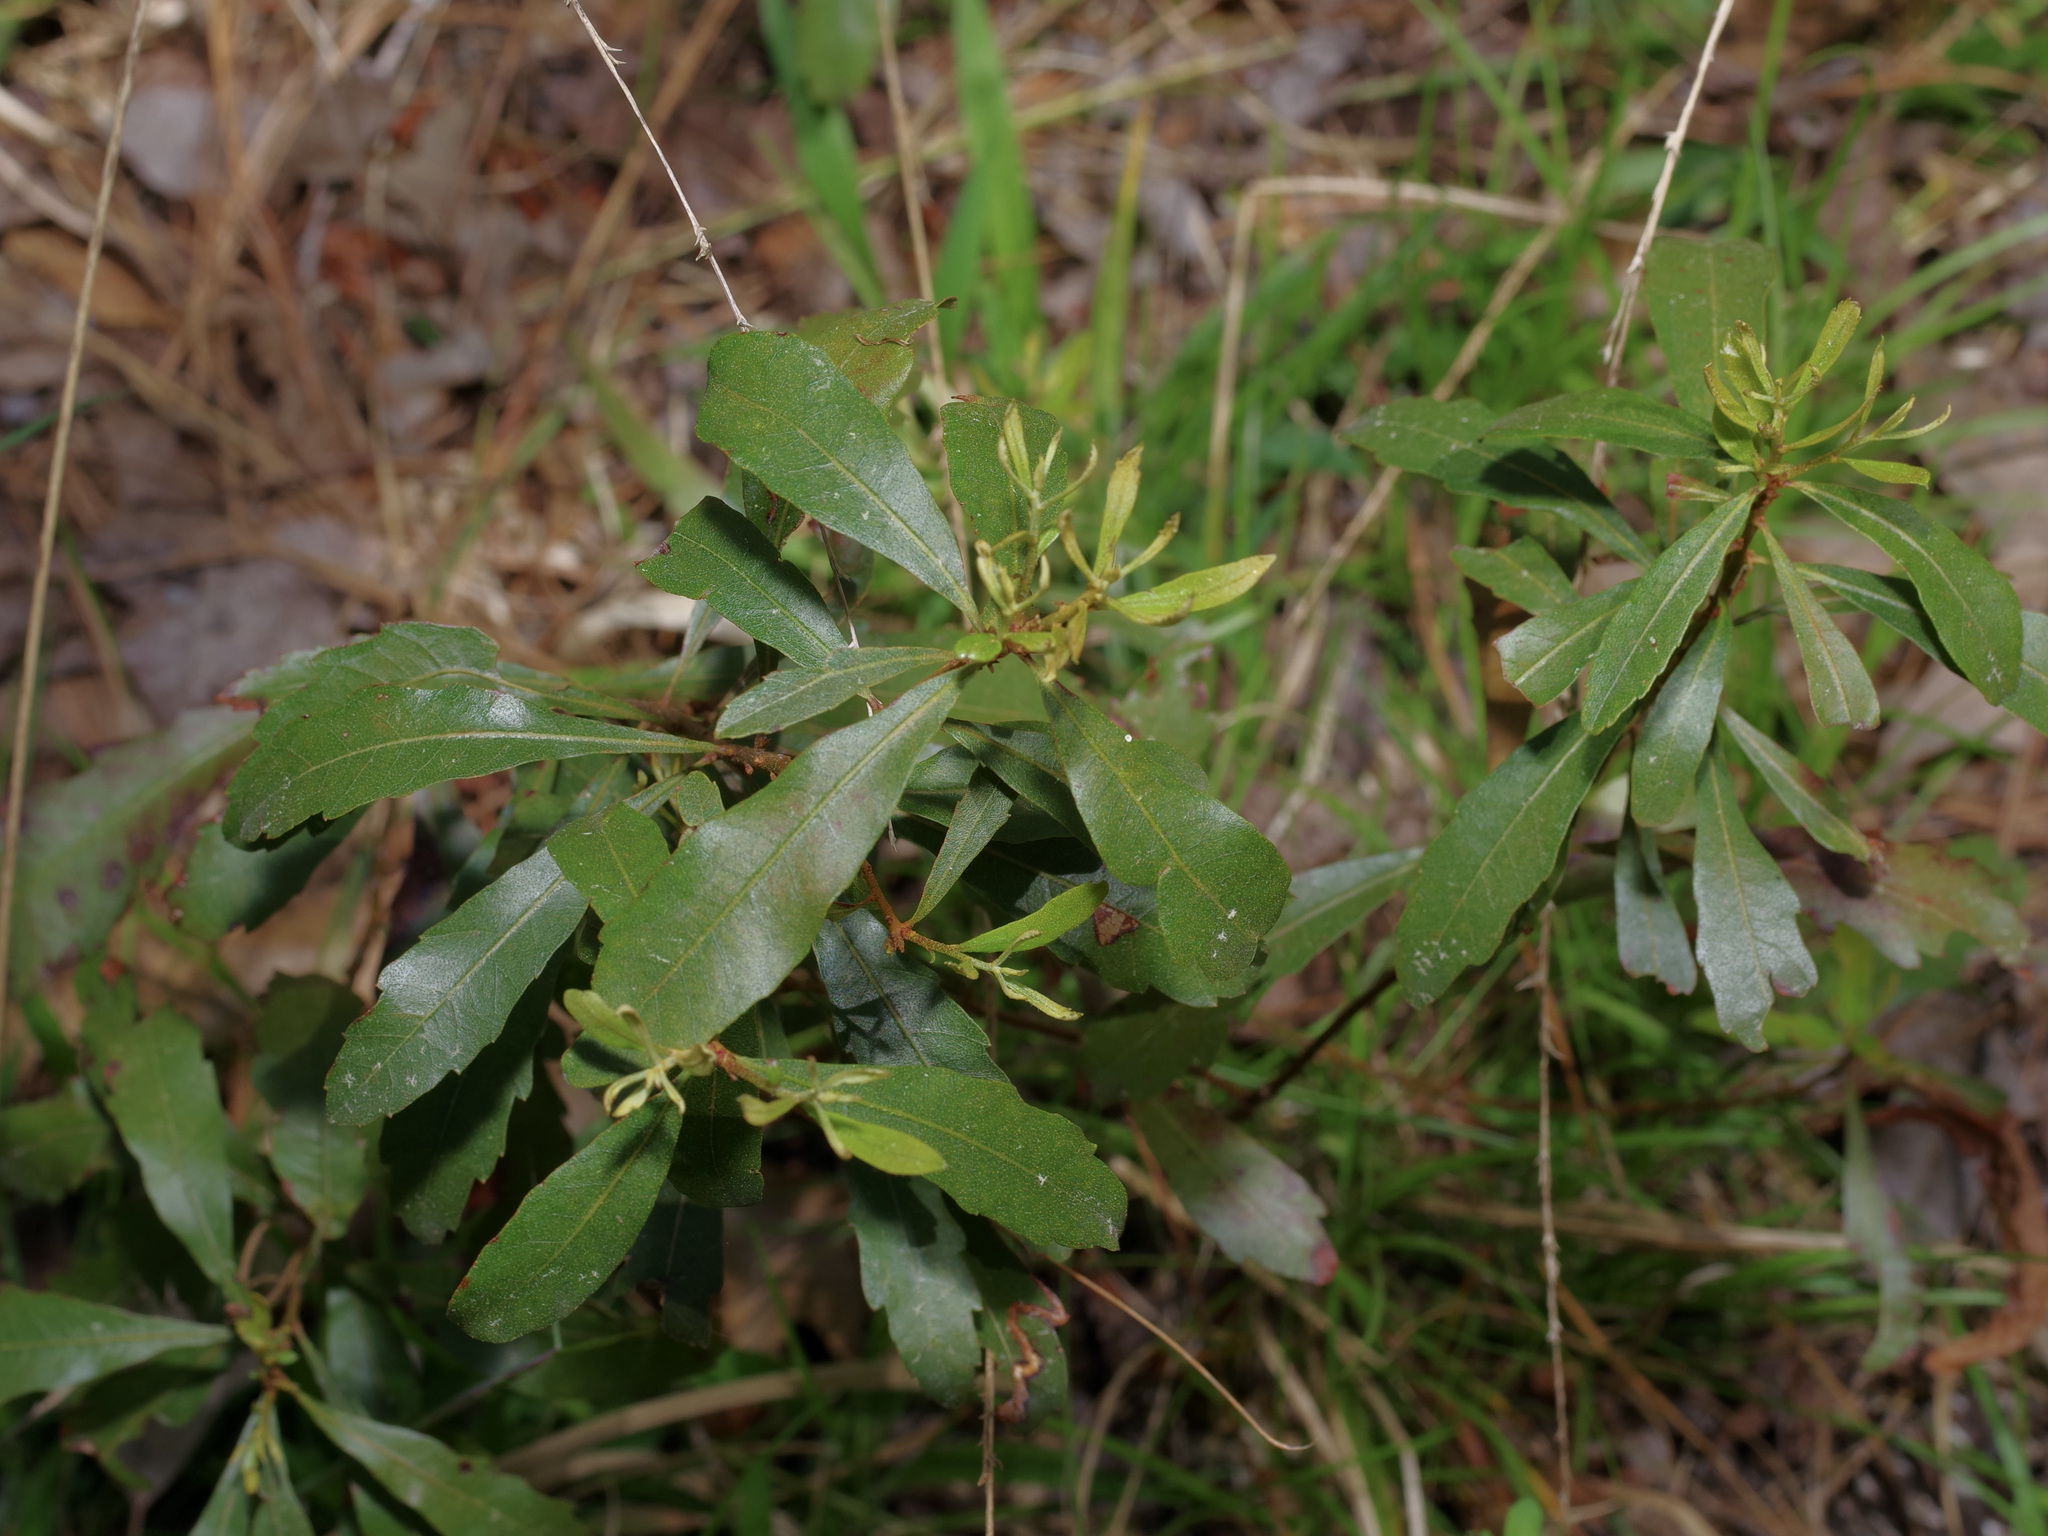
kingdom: Plantae
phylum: Tracheophyta
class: Magnoliopsida
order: Fagales
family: Myricaceae
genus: Morella
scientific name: Morella cerifera
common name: Wax myrtle
